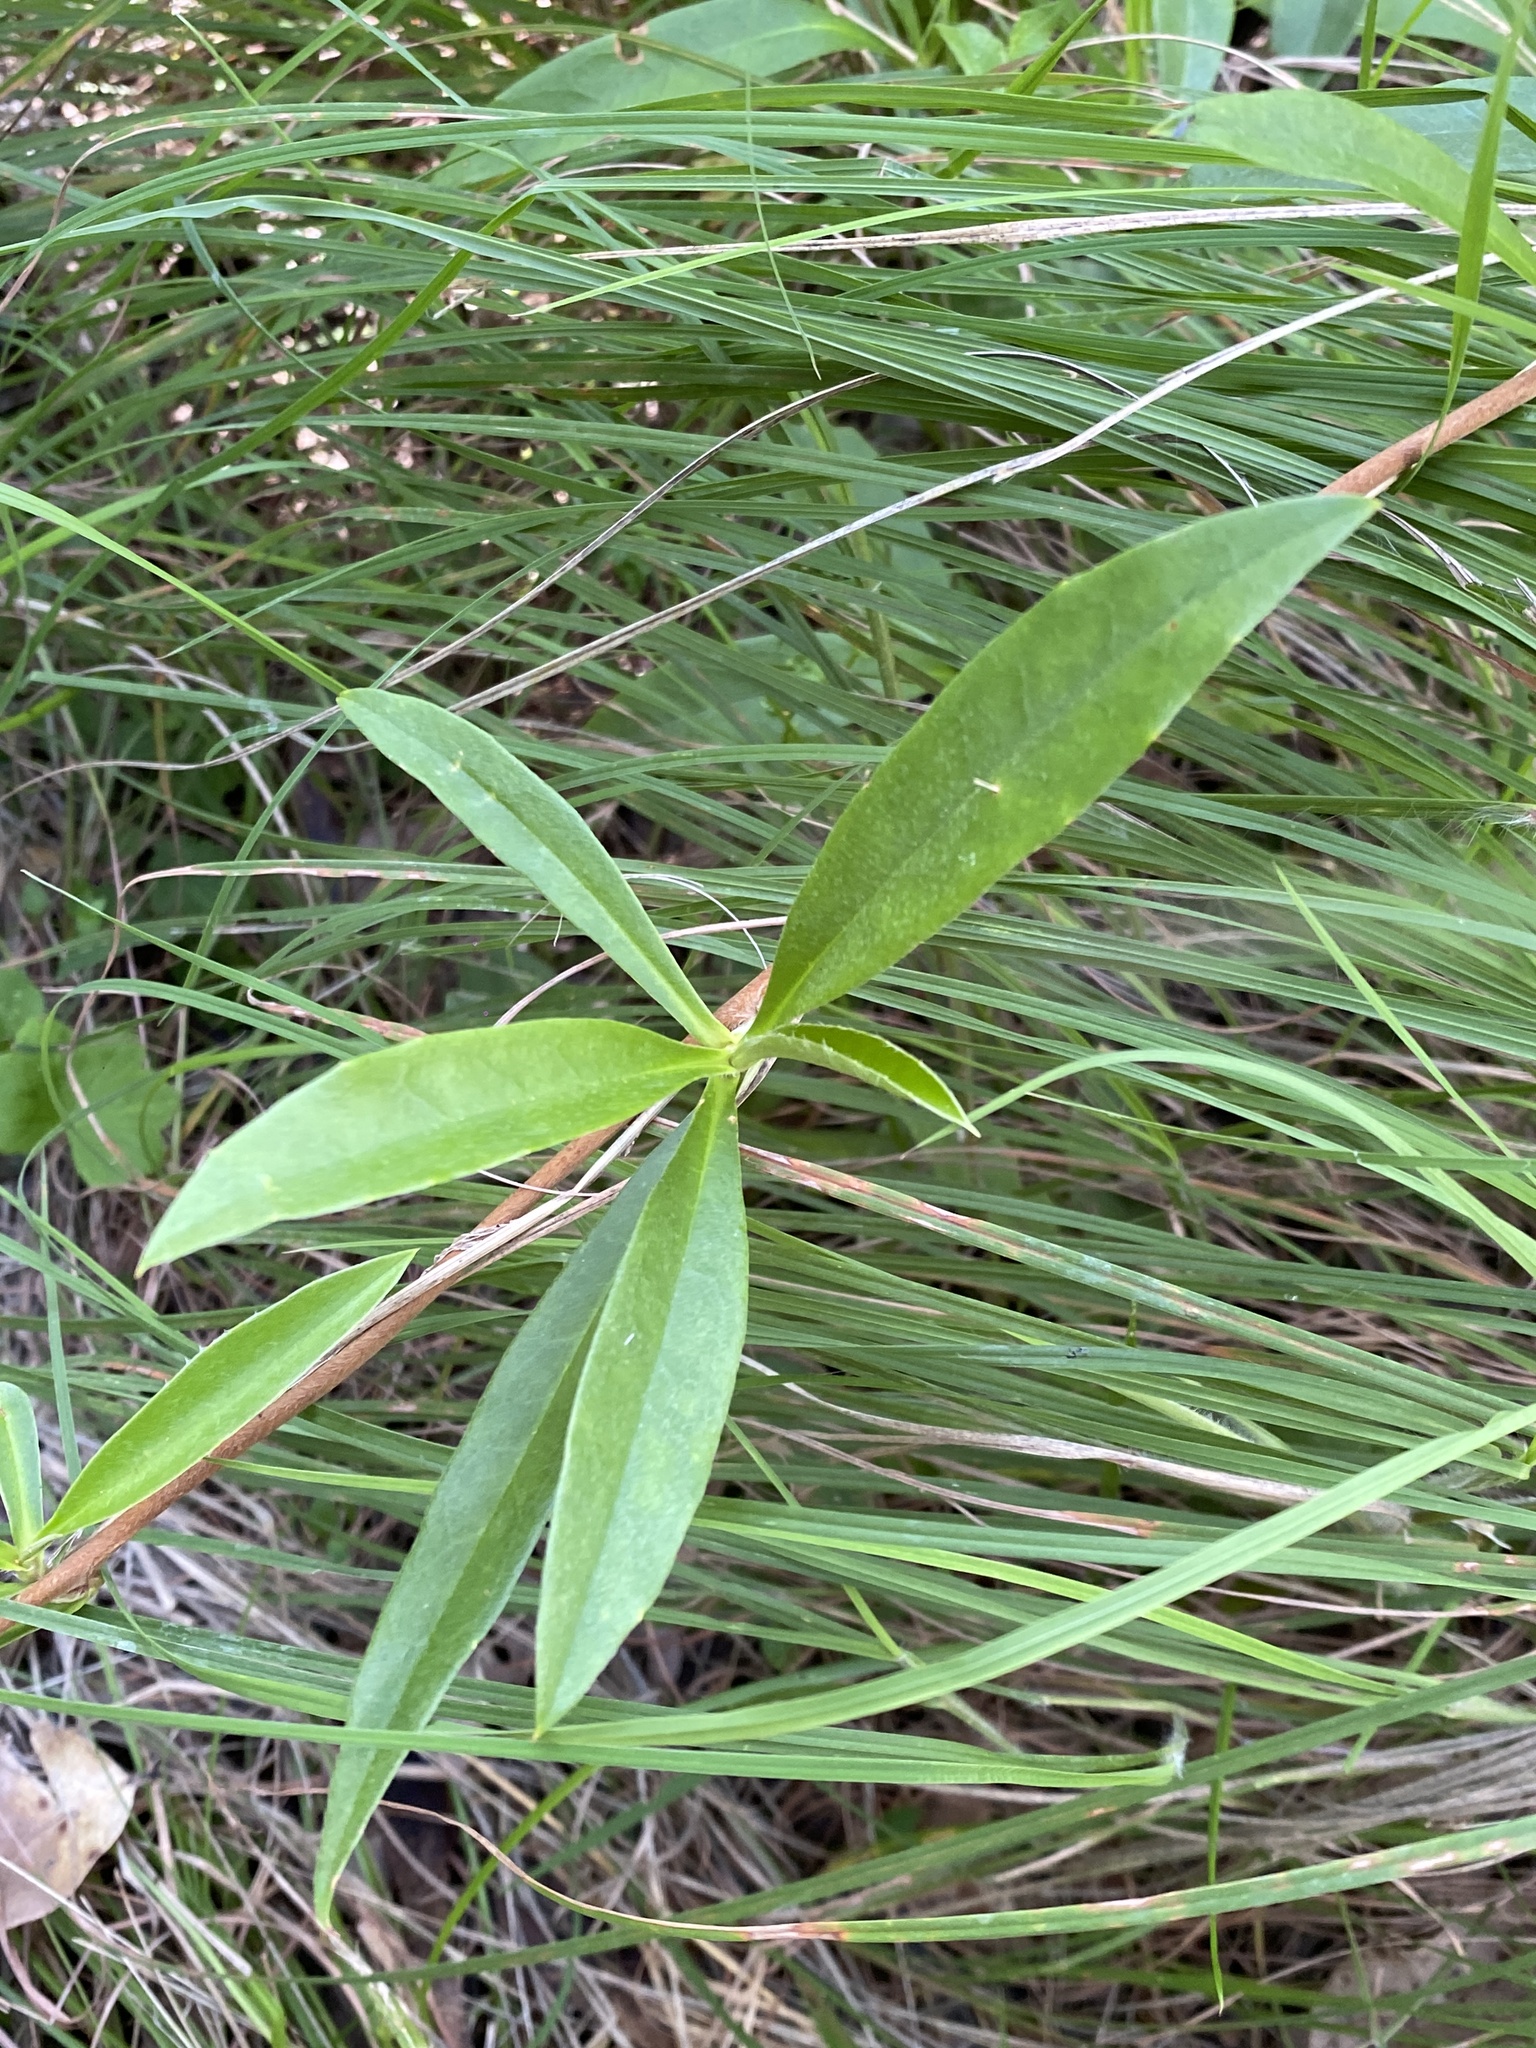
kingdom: Plantae
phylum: Tracheophyta
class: Magnoliopsida
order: Dilleniales
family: Dilleniaceae
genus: Hibbertia
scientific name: Hibbertia scandens
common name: Climbing guinea-flower
